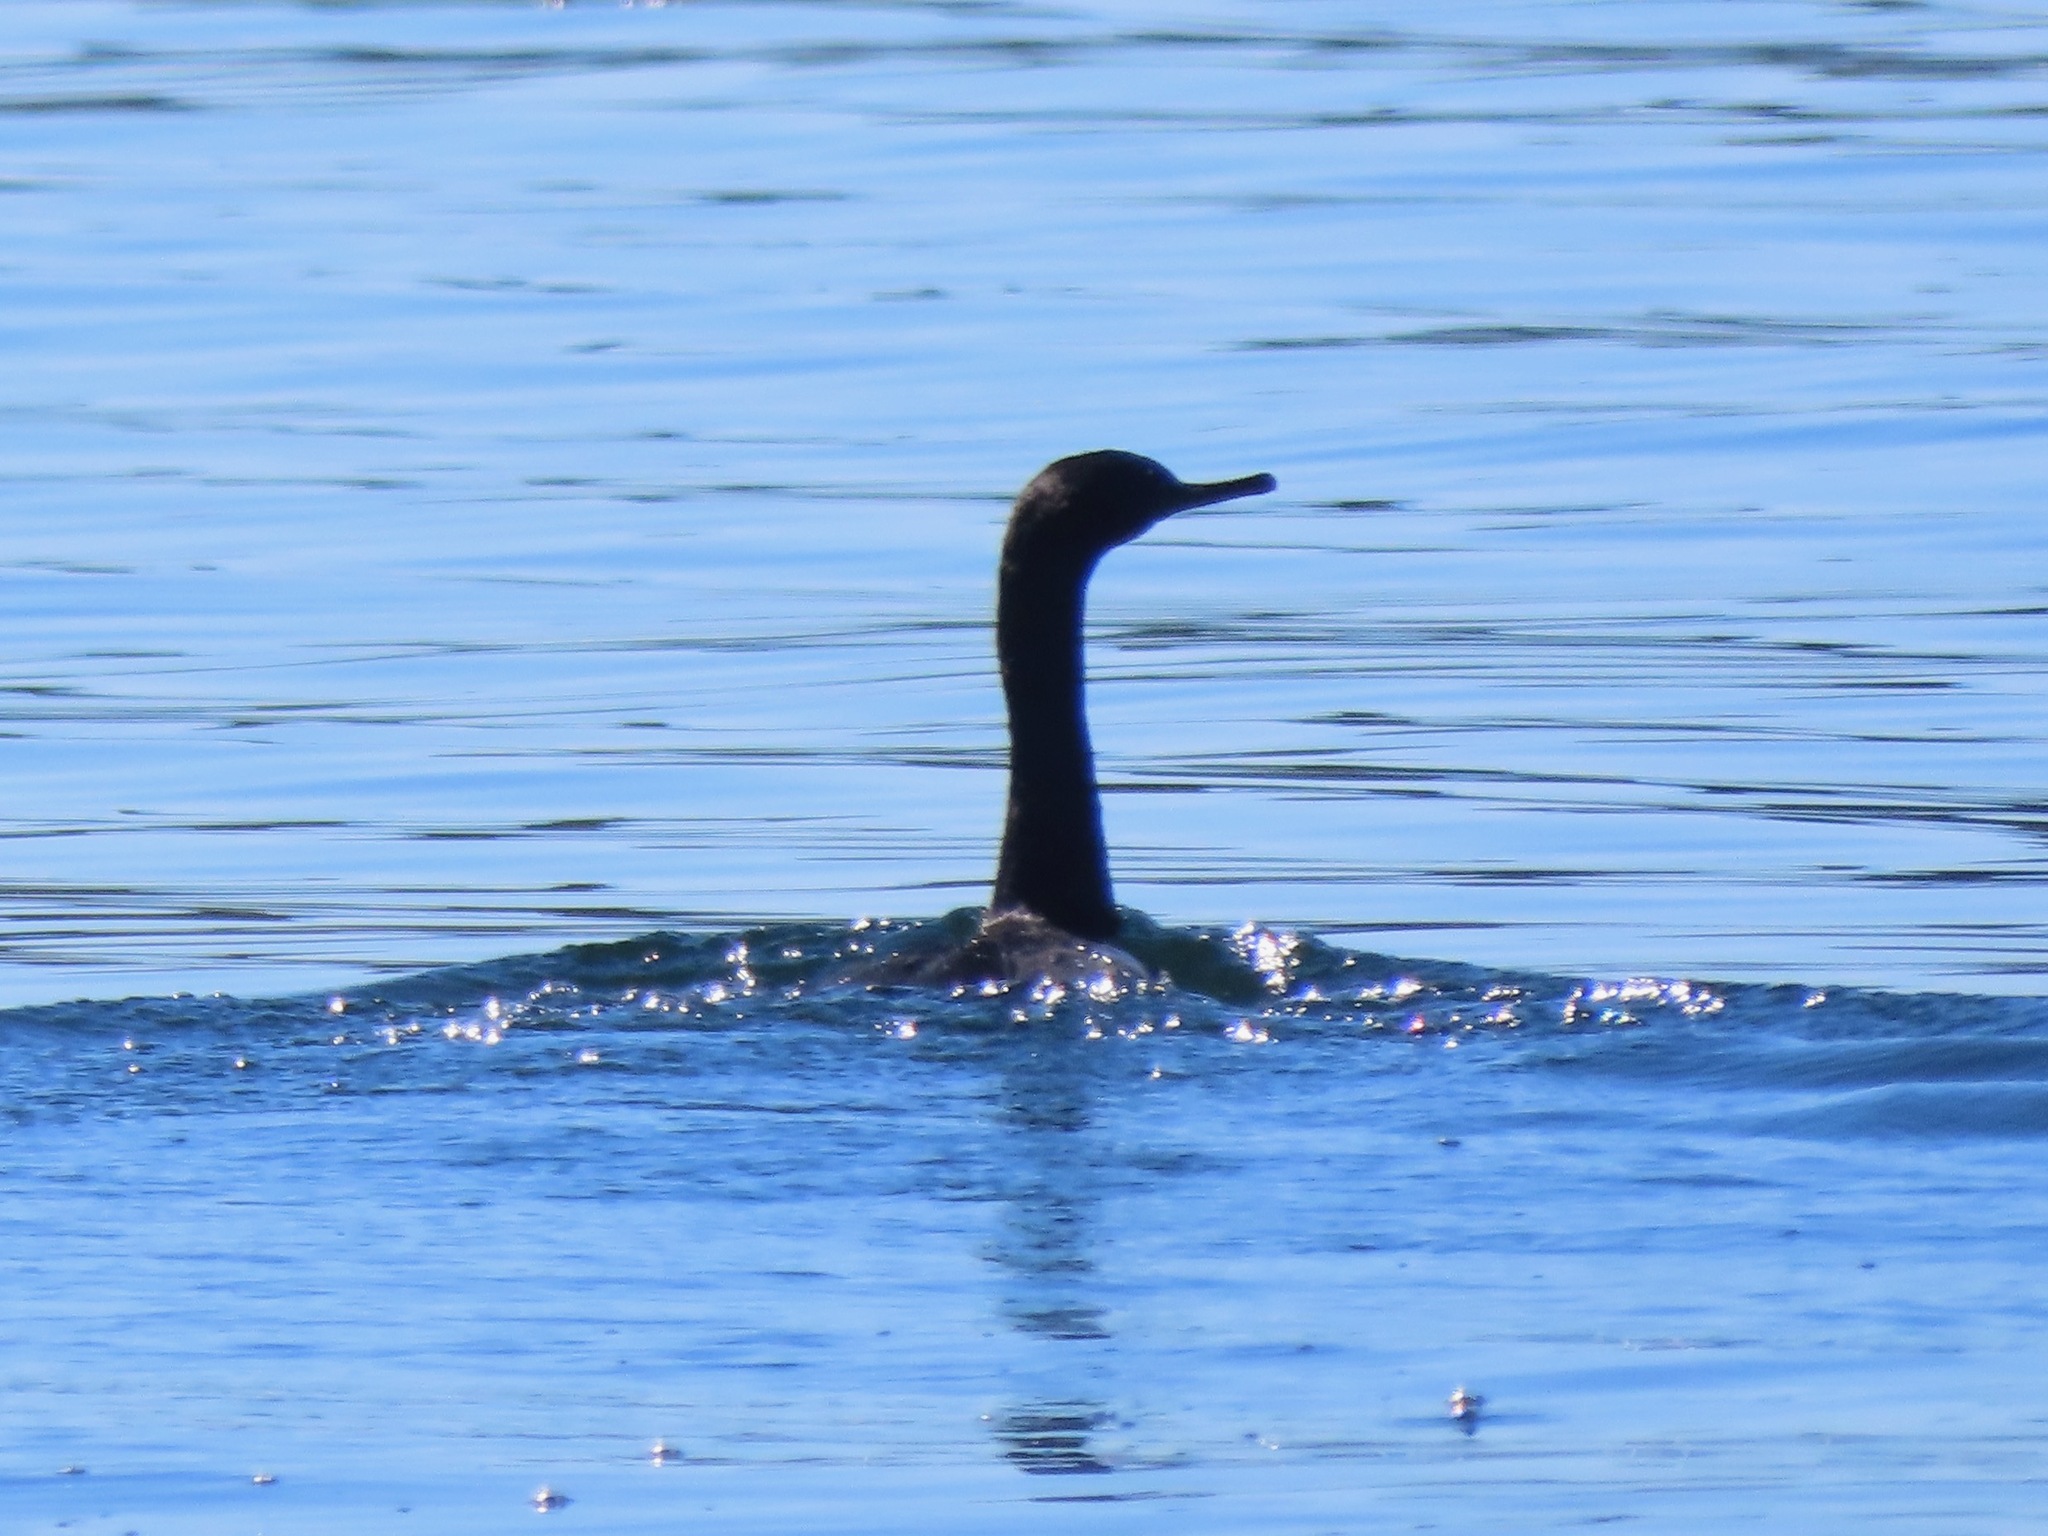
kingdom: Animalia
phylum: Chordata
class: Aves
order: Suliformes
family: Phalacrocoracidae
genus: Phalacrocorax
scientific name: Phalacrocorax pelagicus
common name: Pelagic cormorant
